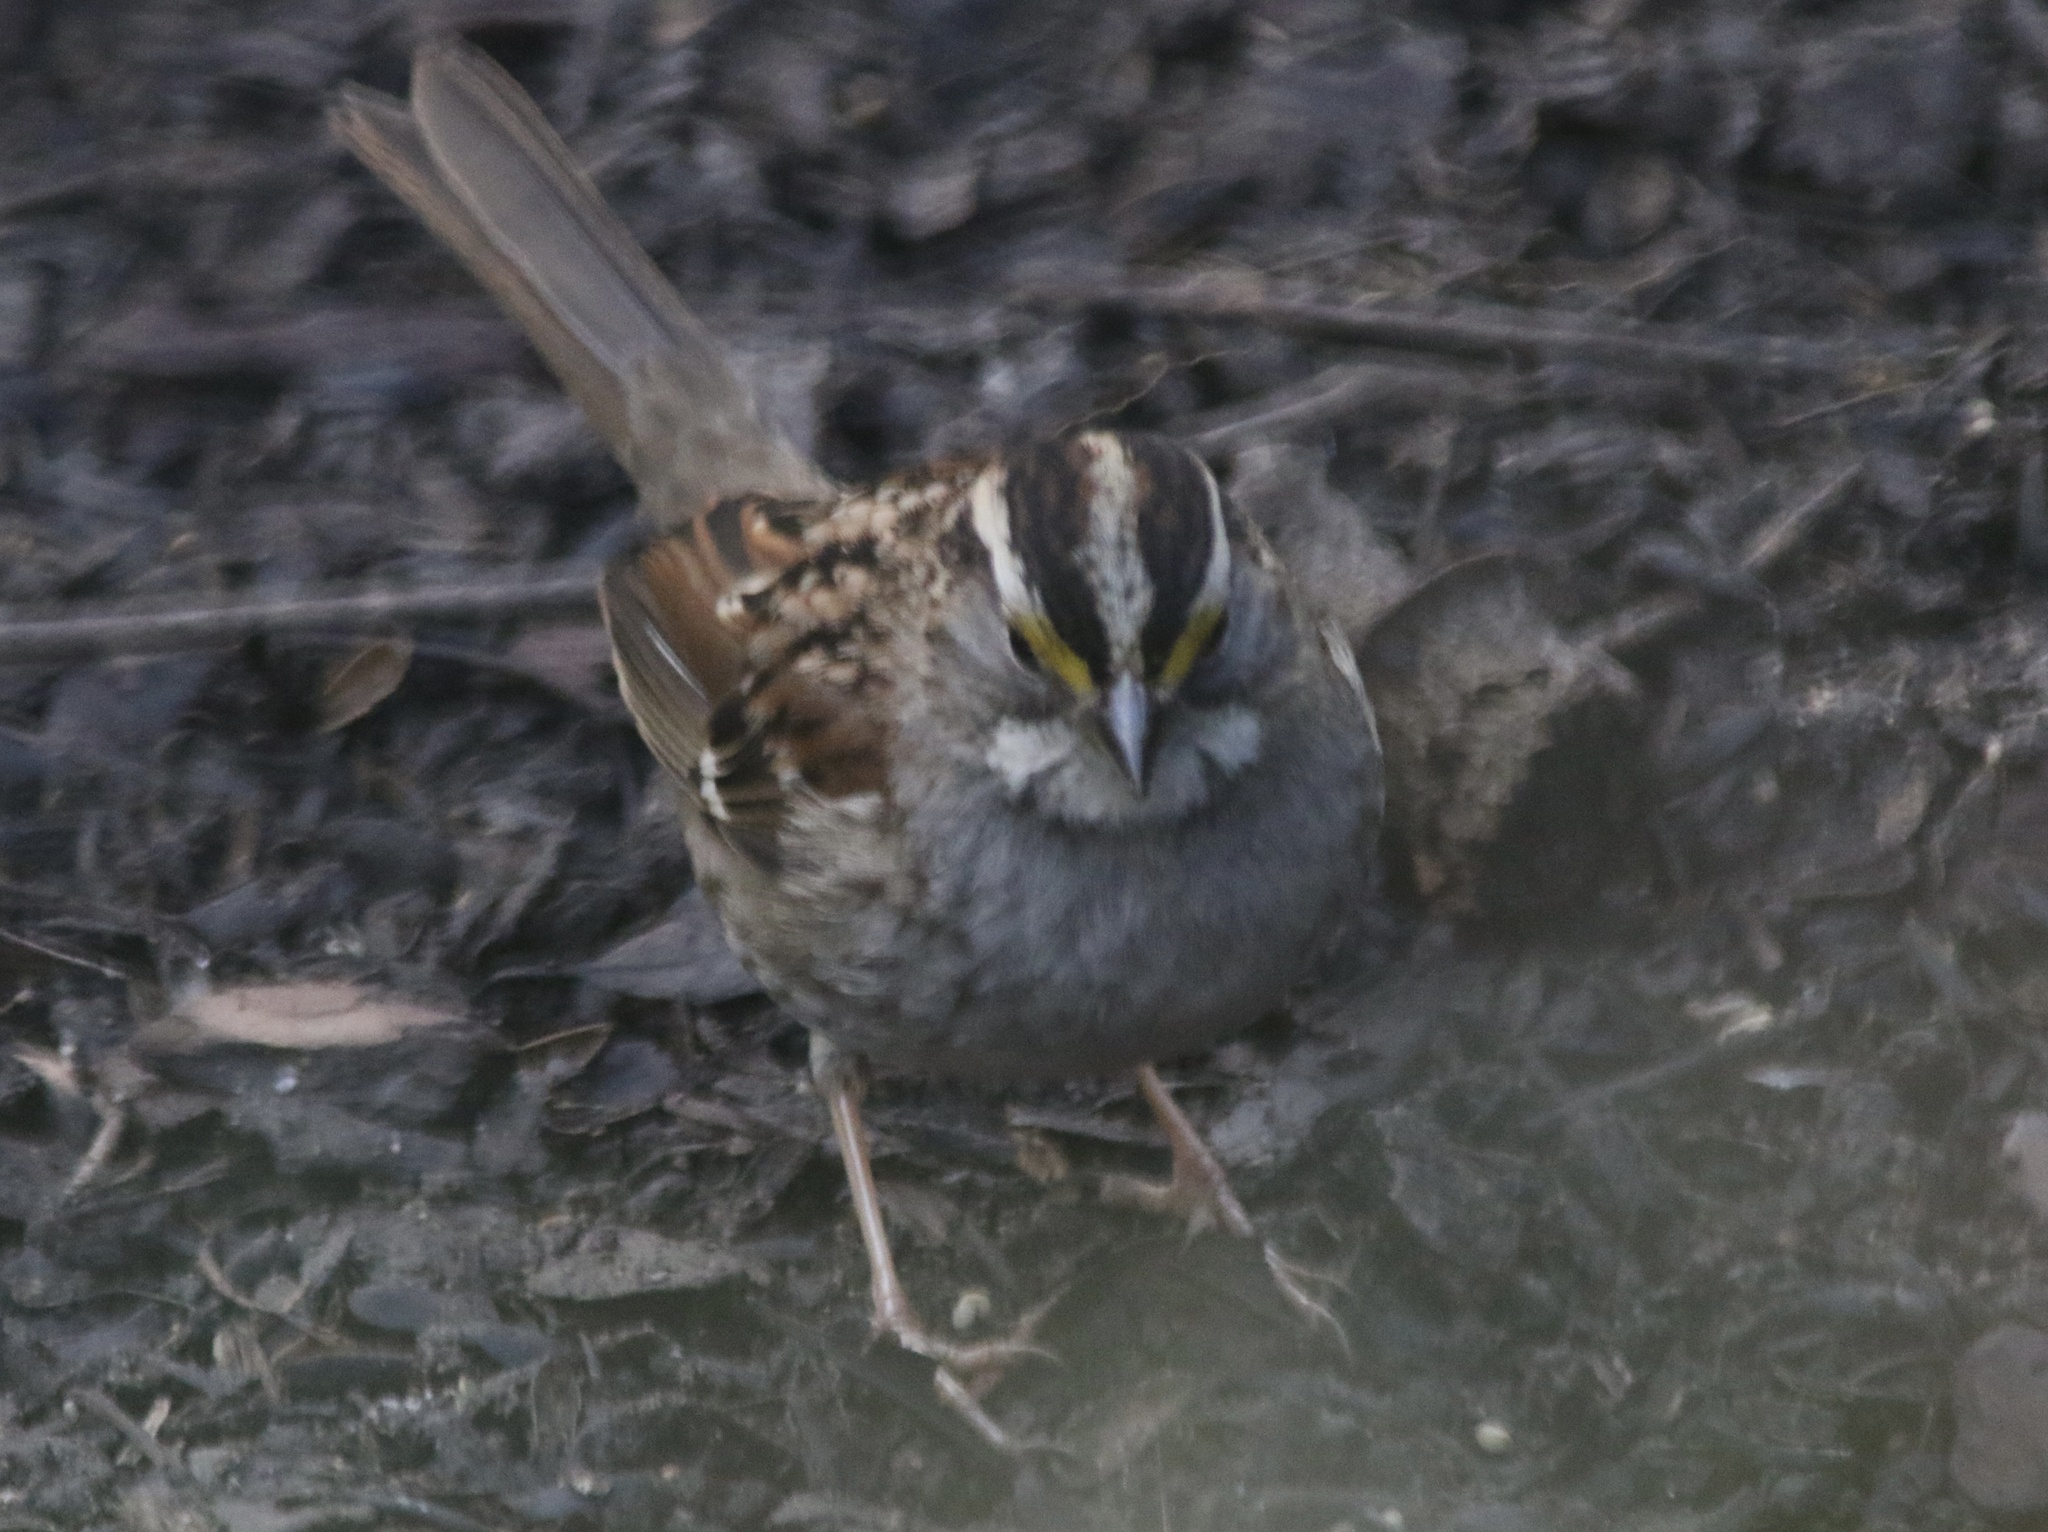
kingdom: Animalia
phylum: Chordata
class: Aves
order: Passeriformes
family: Passerellidae
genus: Zonotrichia
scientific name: Zonotrichia albicollis
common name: White-throated sparrow
